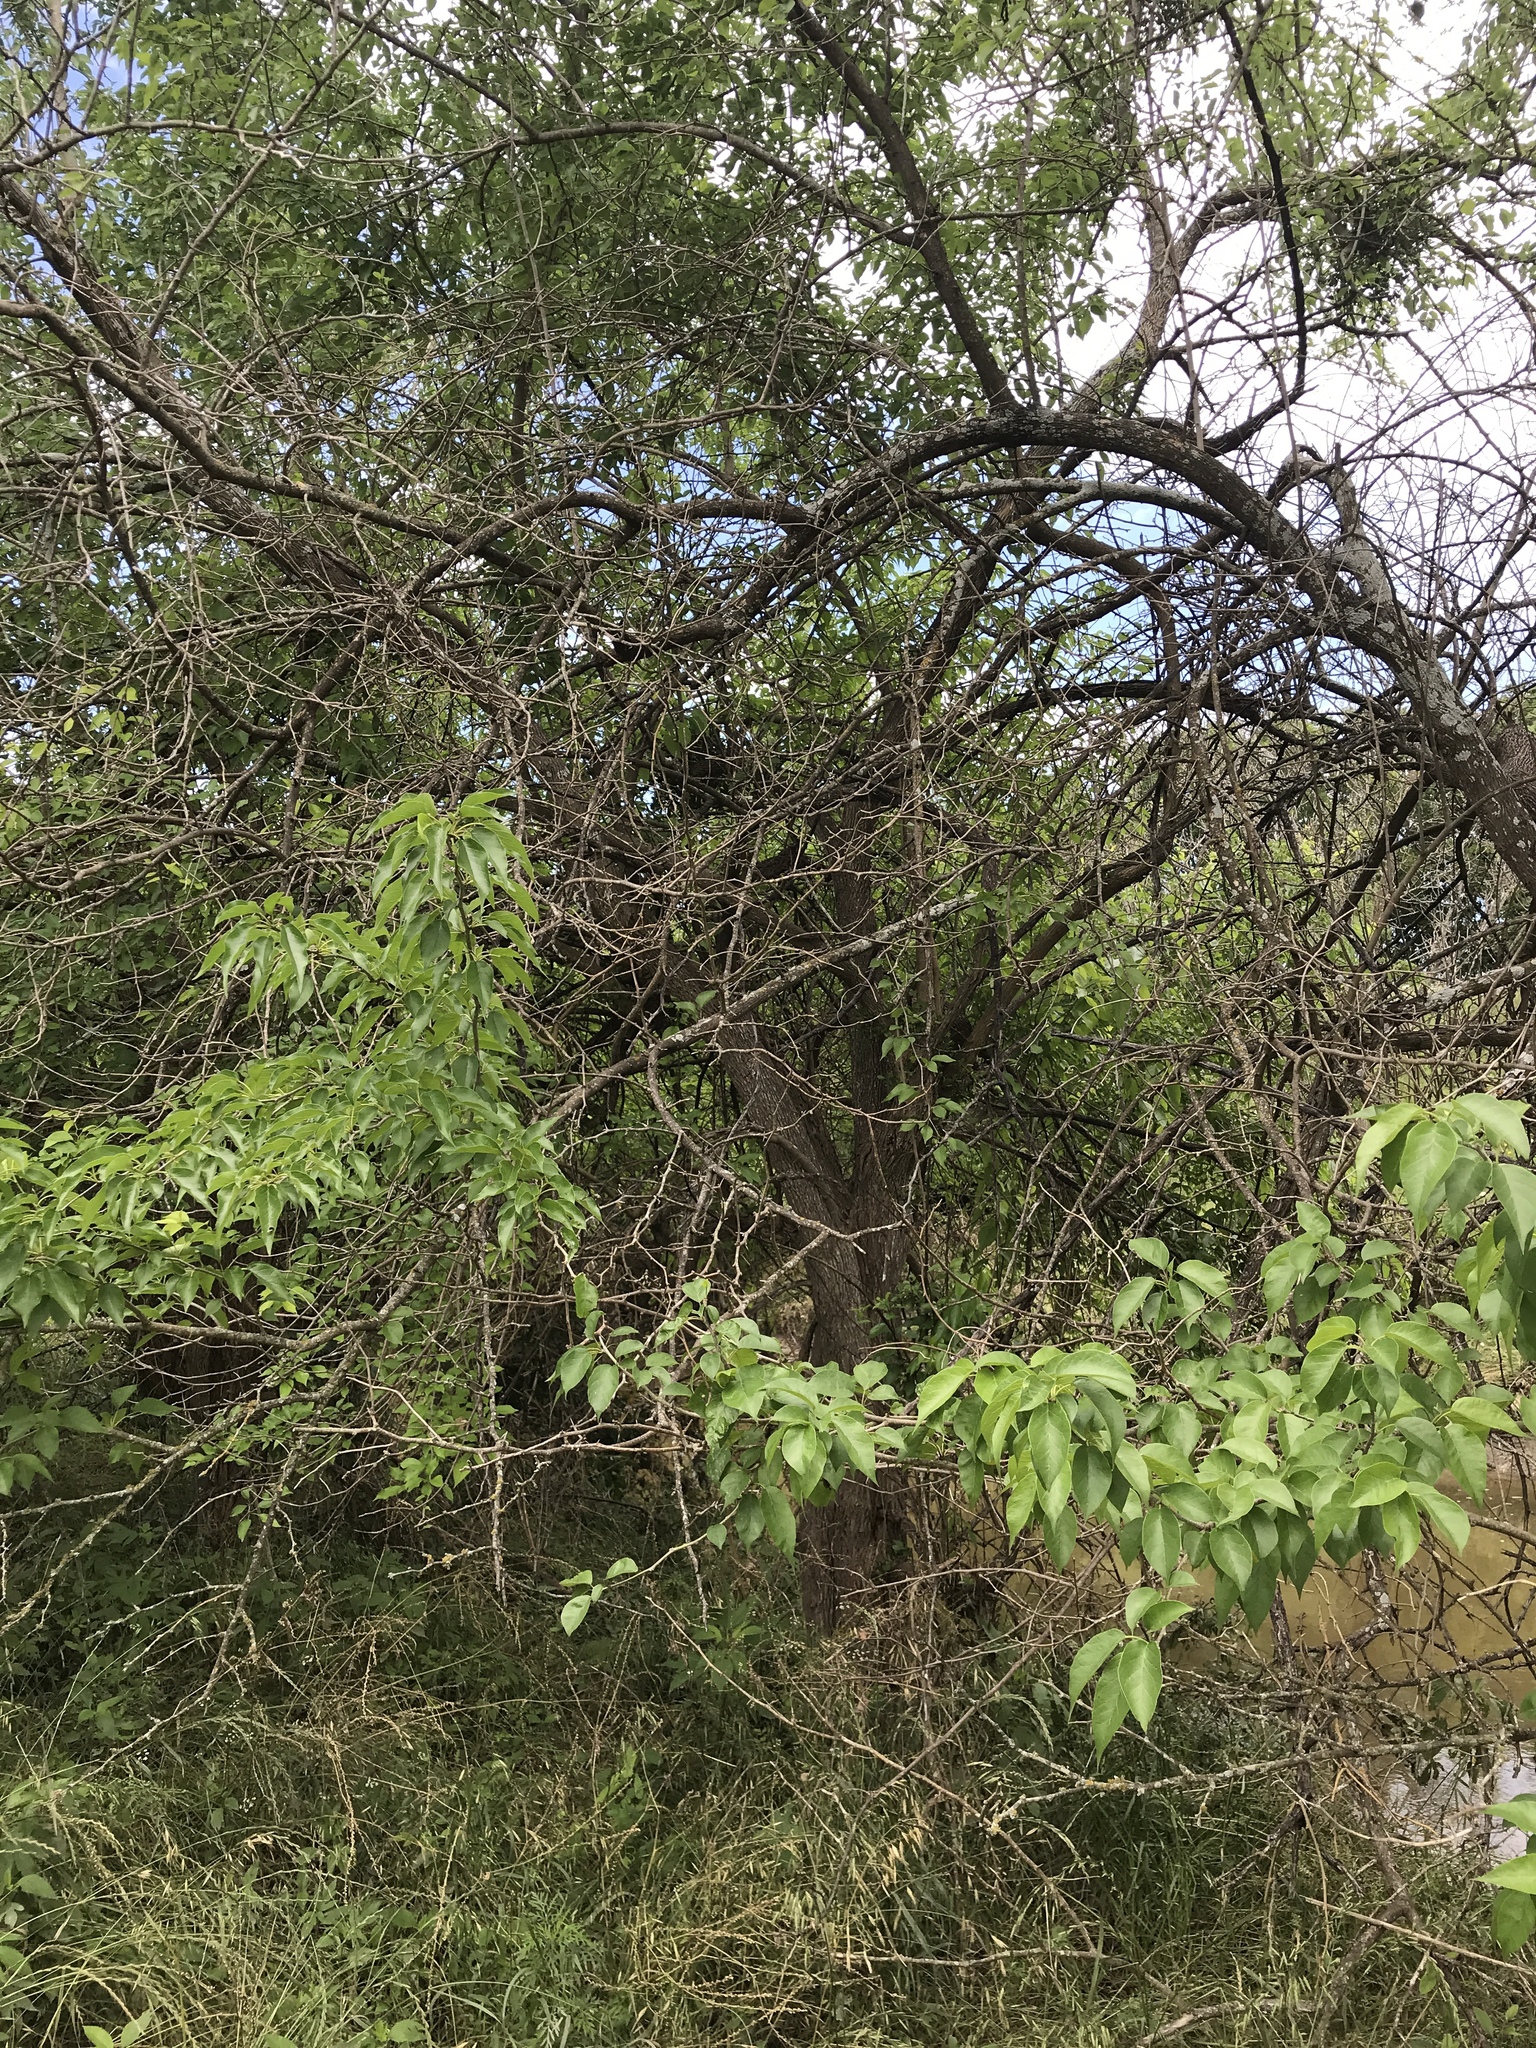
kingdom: Plantae
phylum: Tracheophyta
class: Magnoliopsida
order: Rosales
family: Moraceae
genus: Maclura
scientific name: Maclura pomifera
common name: Osage-orange
